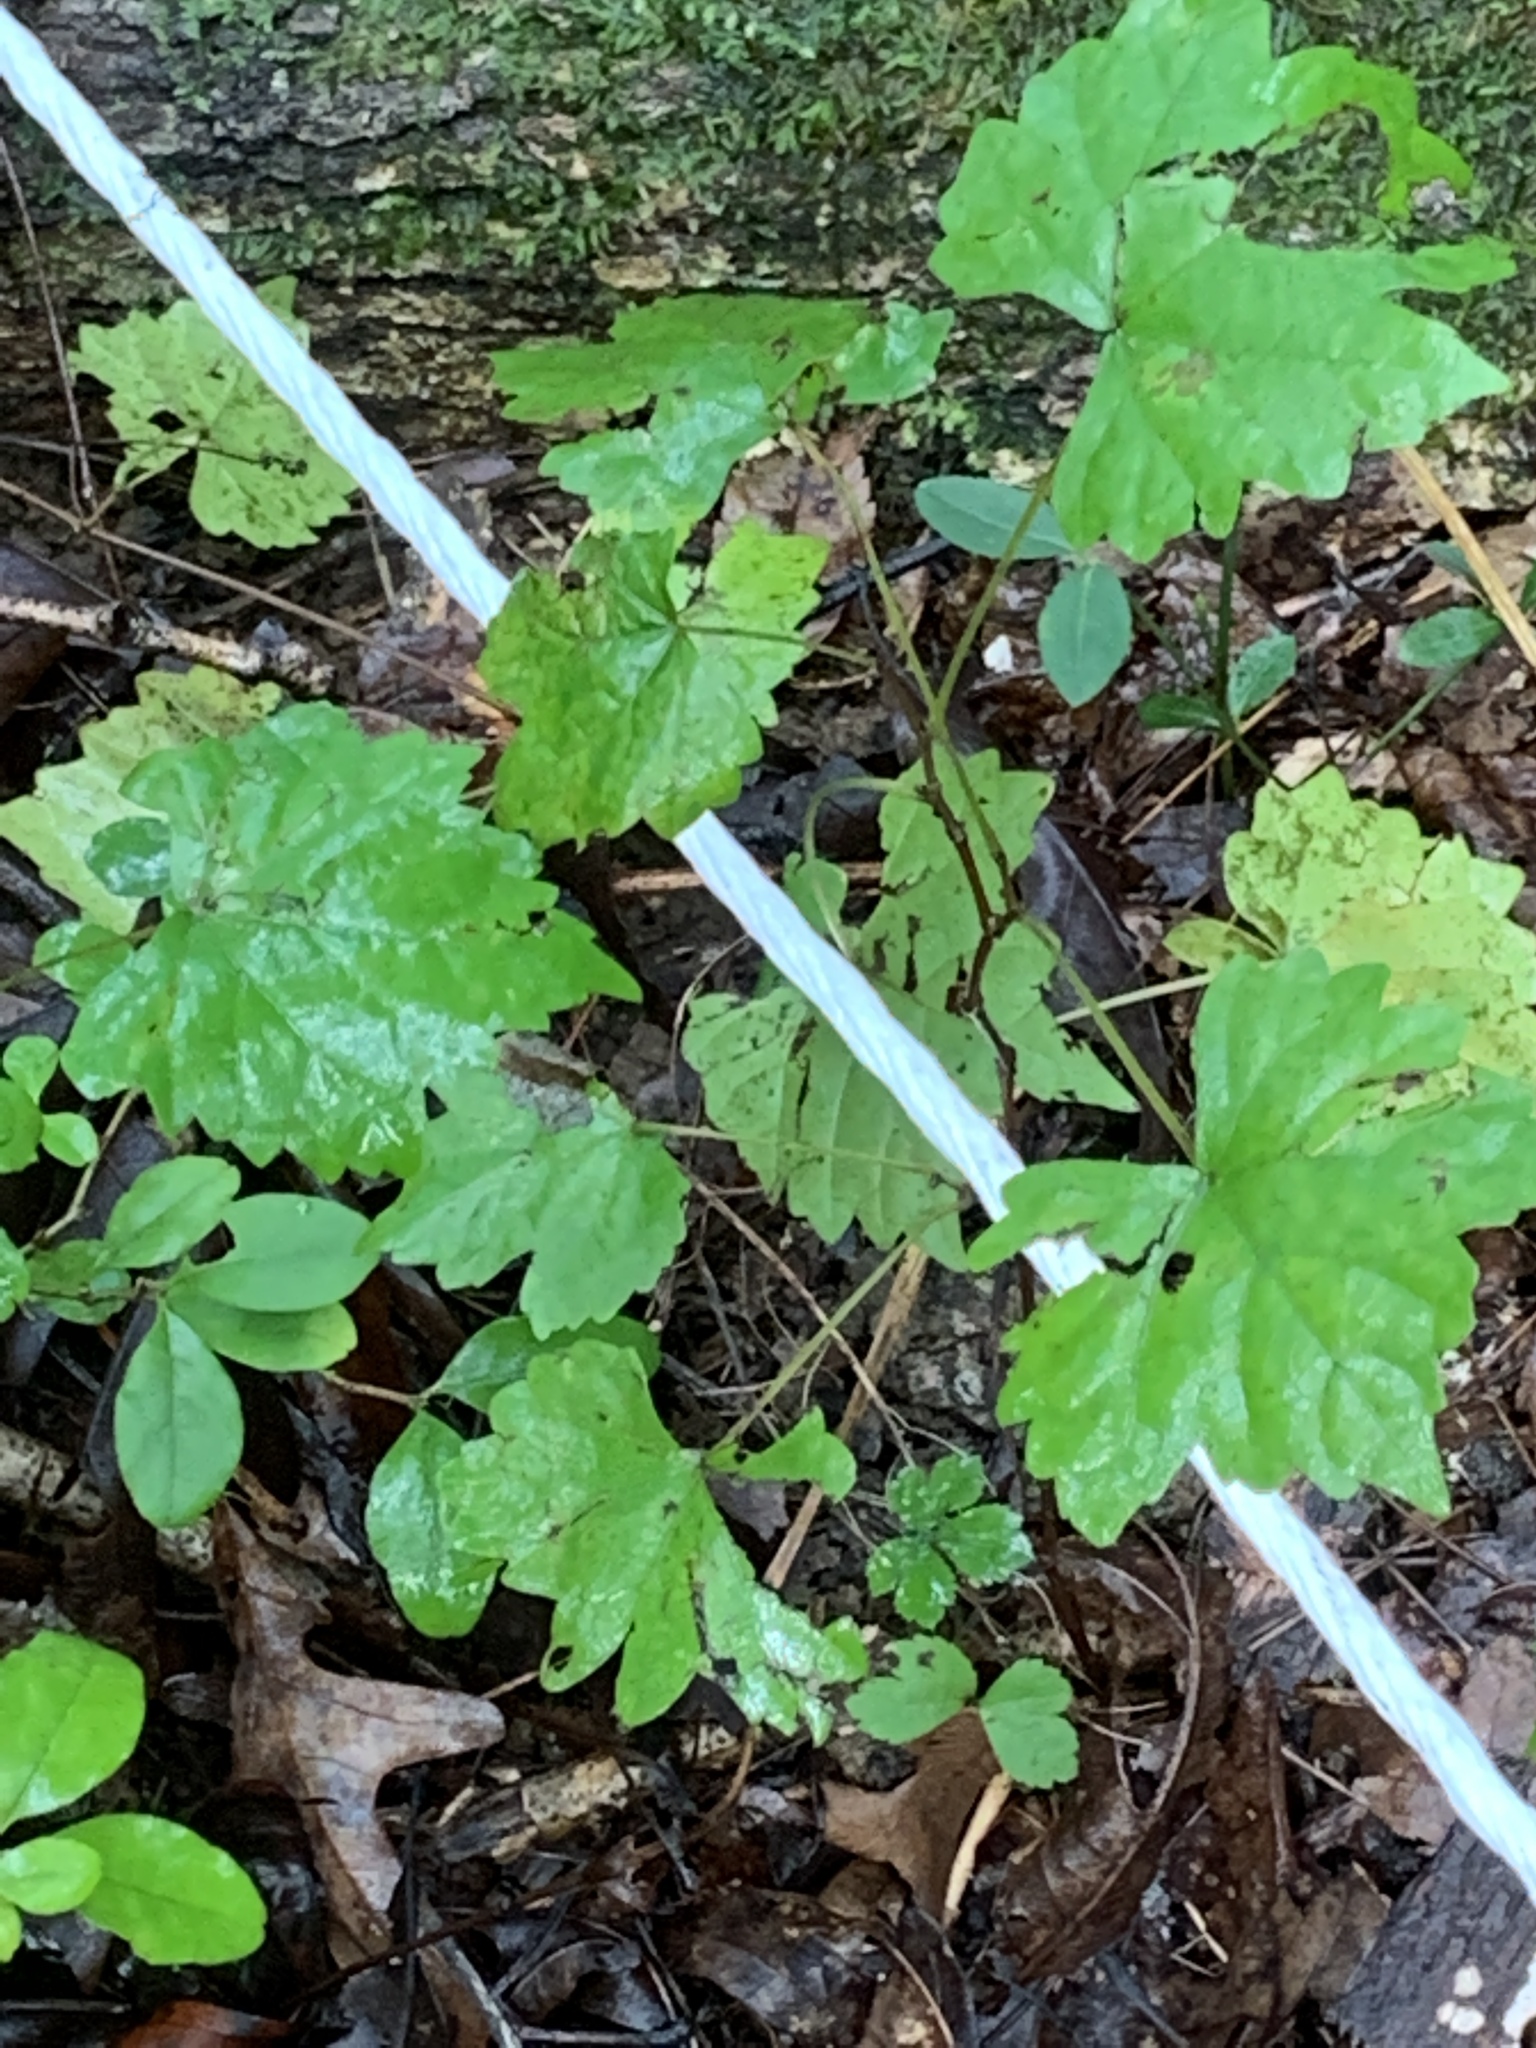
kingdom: Plantae
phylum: Tracheophyta
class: Magnoliopsida
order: Vitales
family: Vitaceae
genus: Vitis
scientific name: Vitis rotundifolia
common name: Muscadine grape
